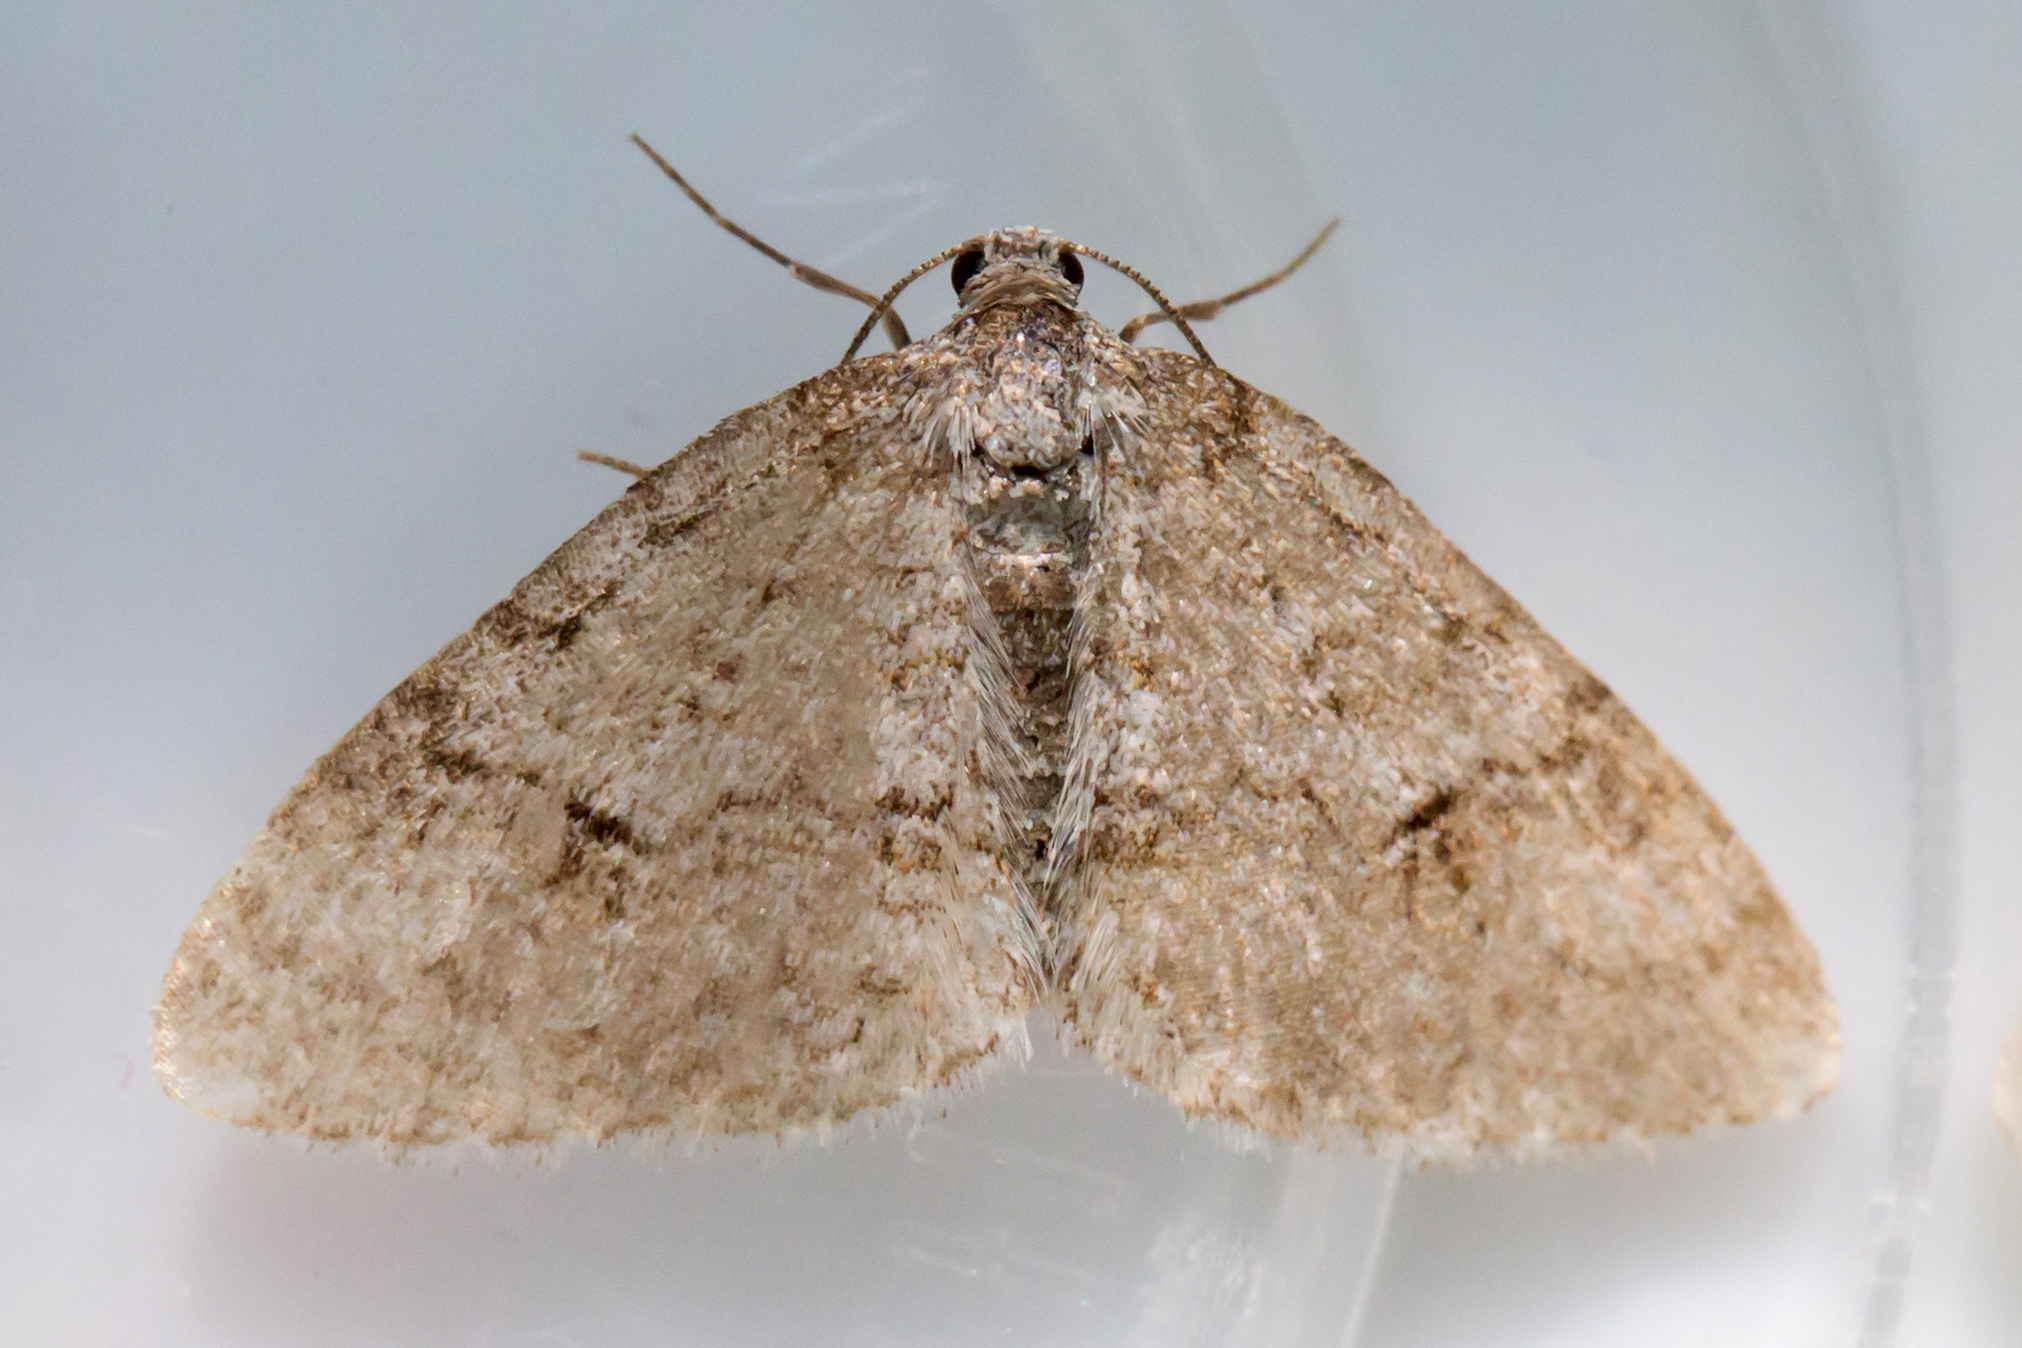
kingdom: Animalia
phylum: Arthropoda
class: Insecta
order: Lepidoptera
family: Geometridae
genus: Venusia
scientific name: Venusia comptaria
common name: Brown-shaded carpet
